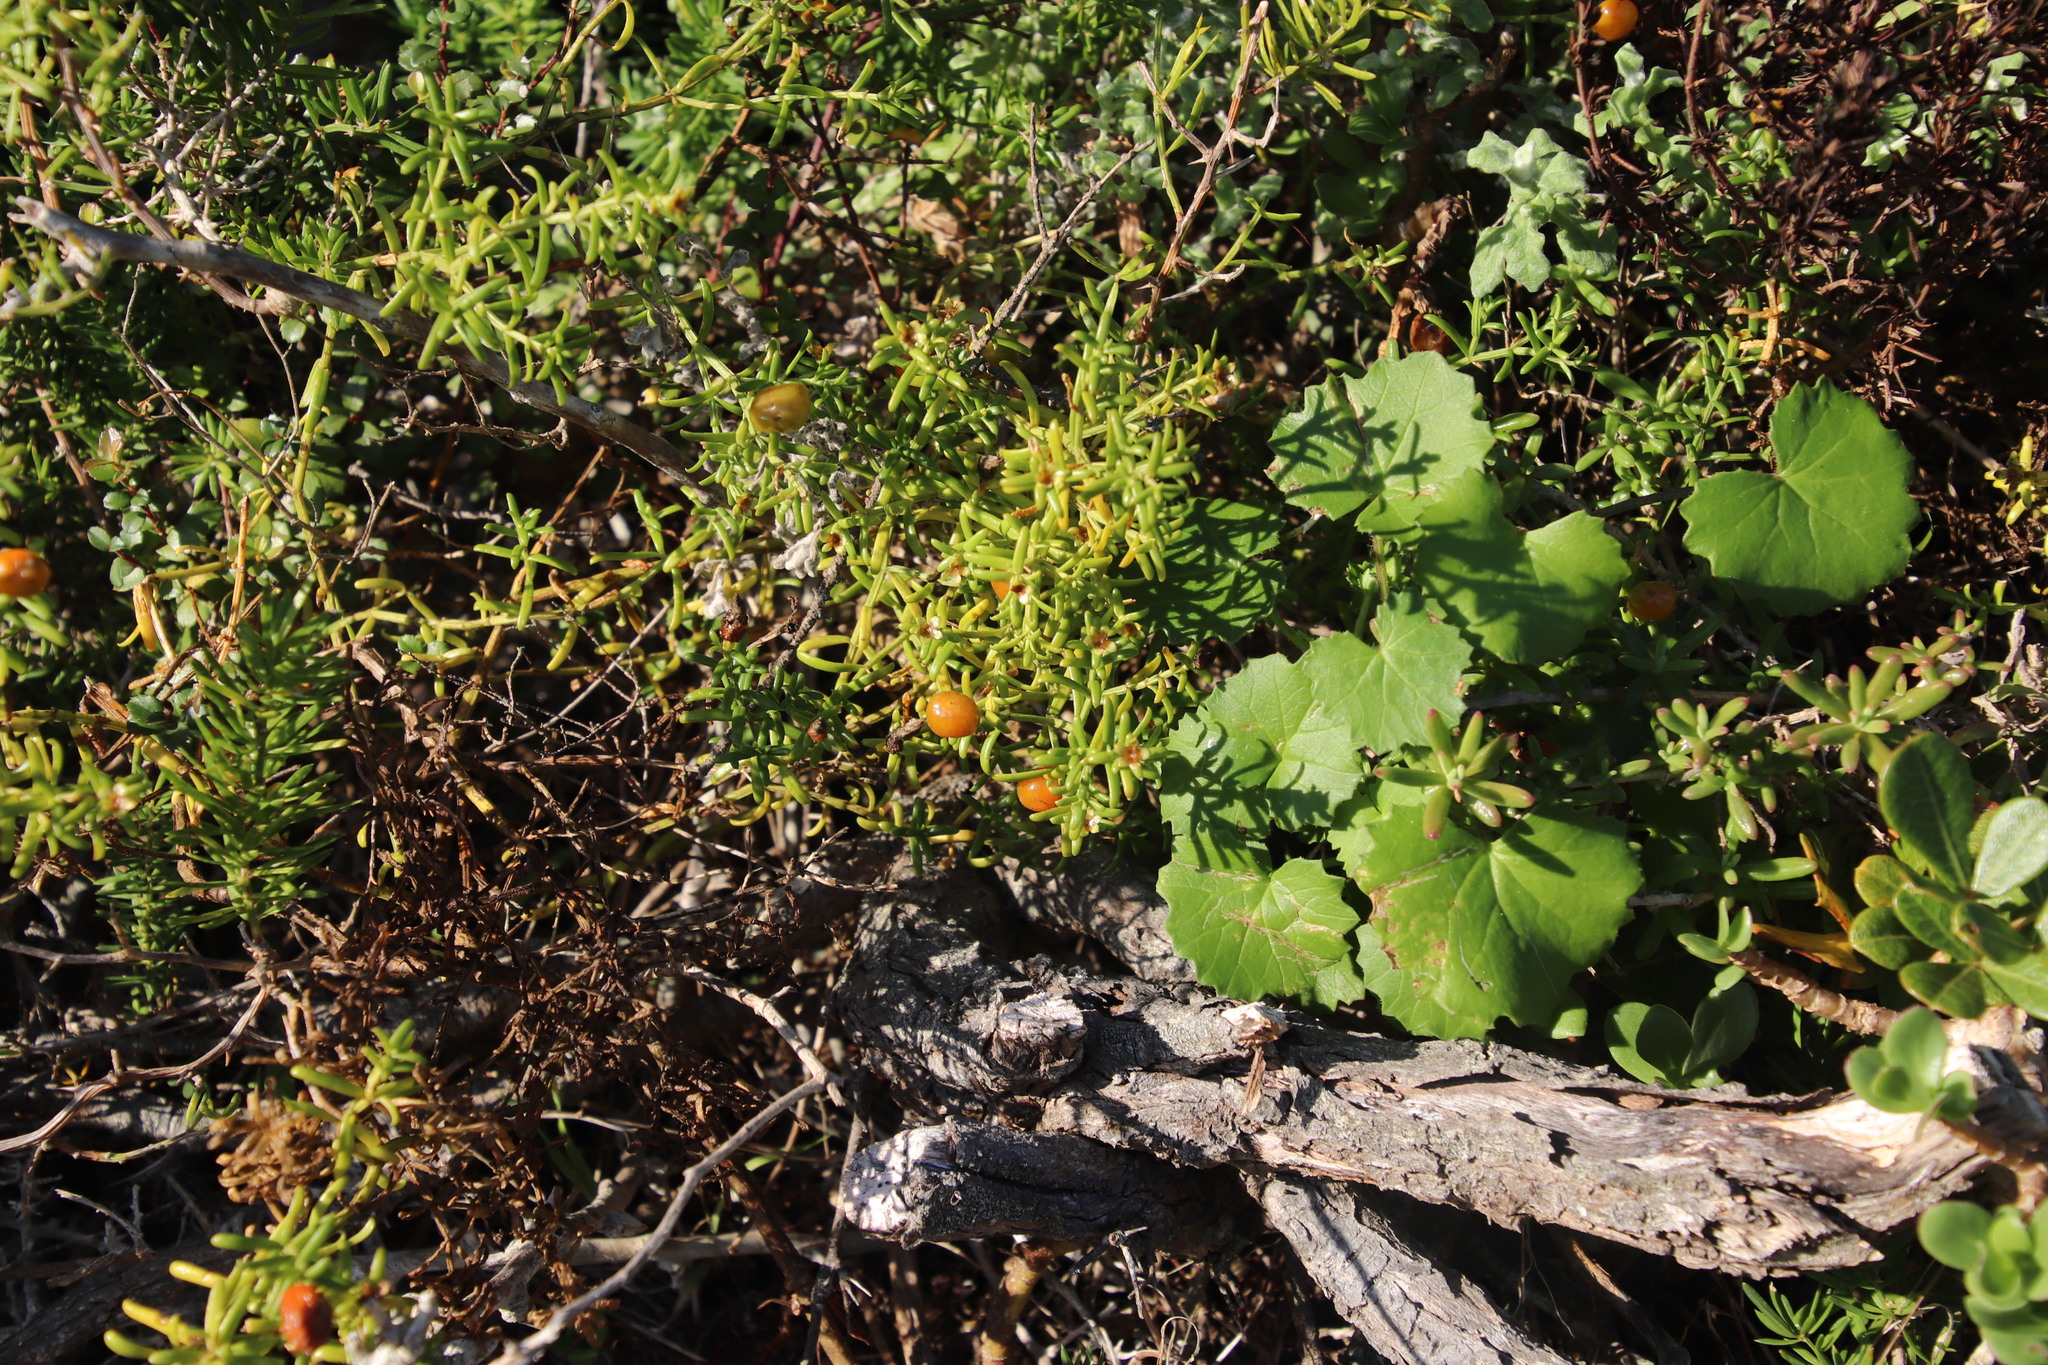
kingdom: Plantae
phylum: Tracheophyta
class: Magnoliopsida
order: Gentianales
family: Gentianaceae
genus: Chironia
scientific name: Chironia baccifera
